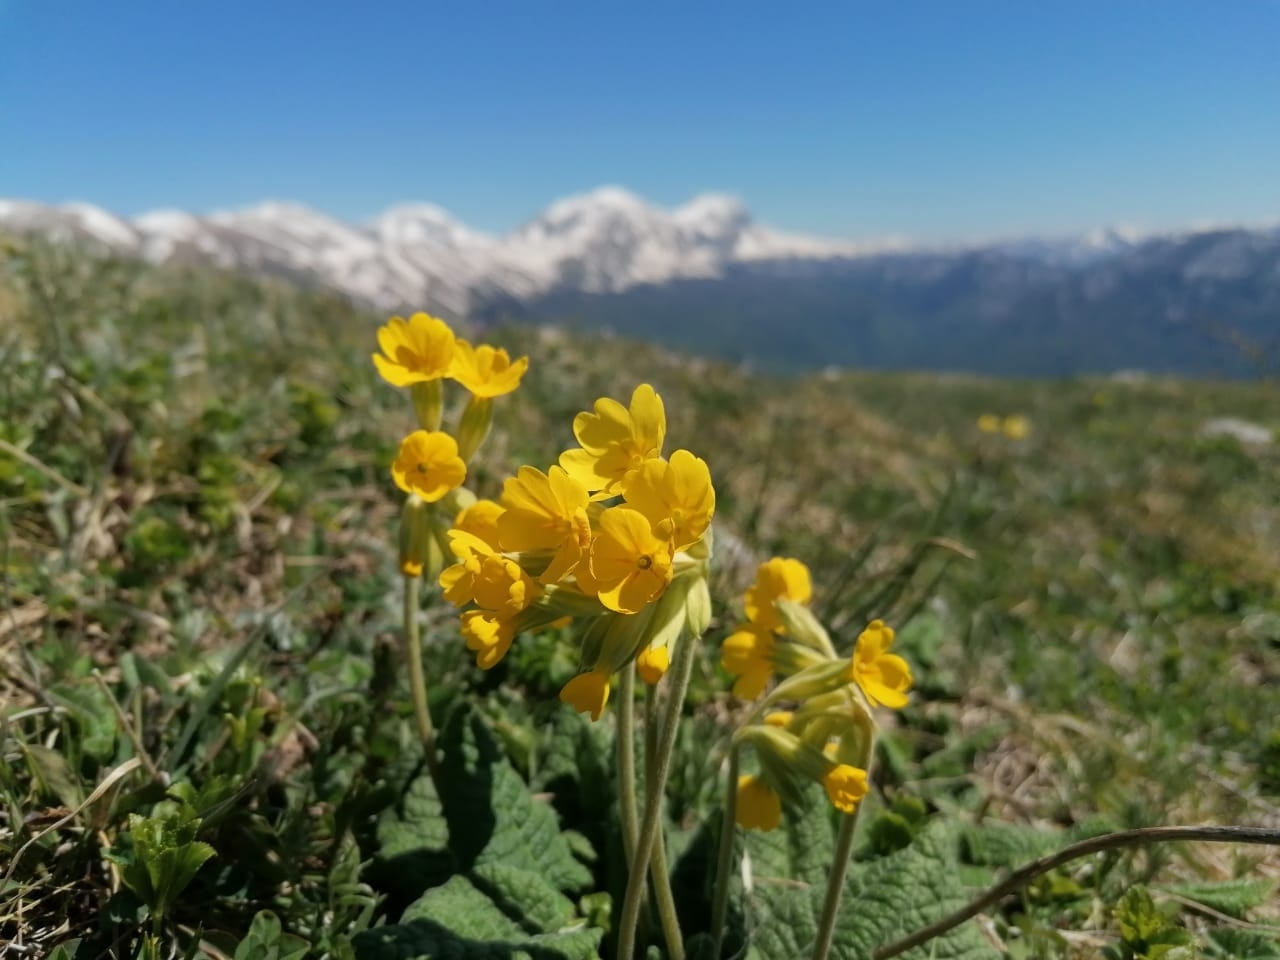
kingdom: Plantae
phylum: Tracheophyta
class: Magnoliopsida
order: Ericales
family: Primulaceae
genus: Primula
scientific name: Primula veris
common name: Cowslip
